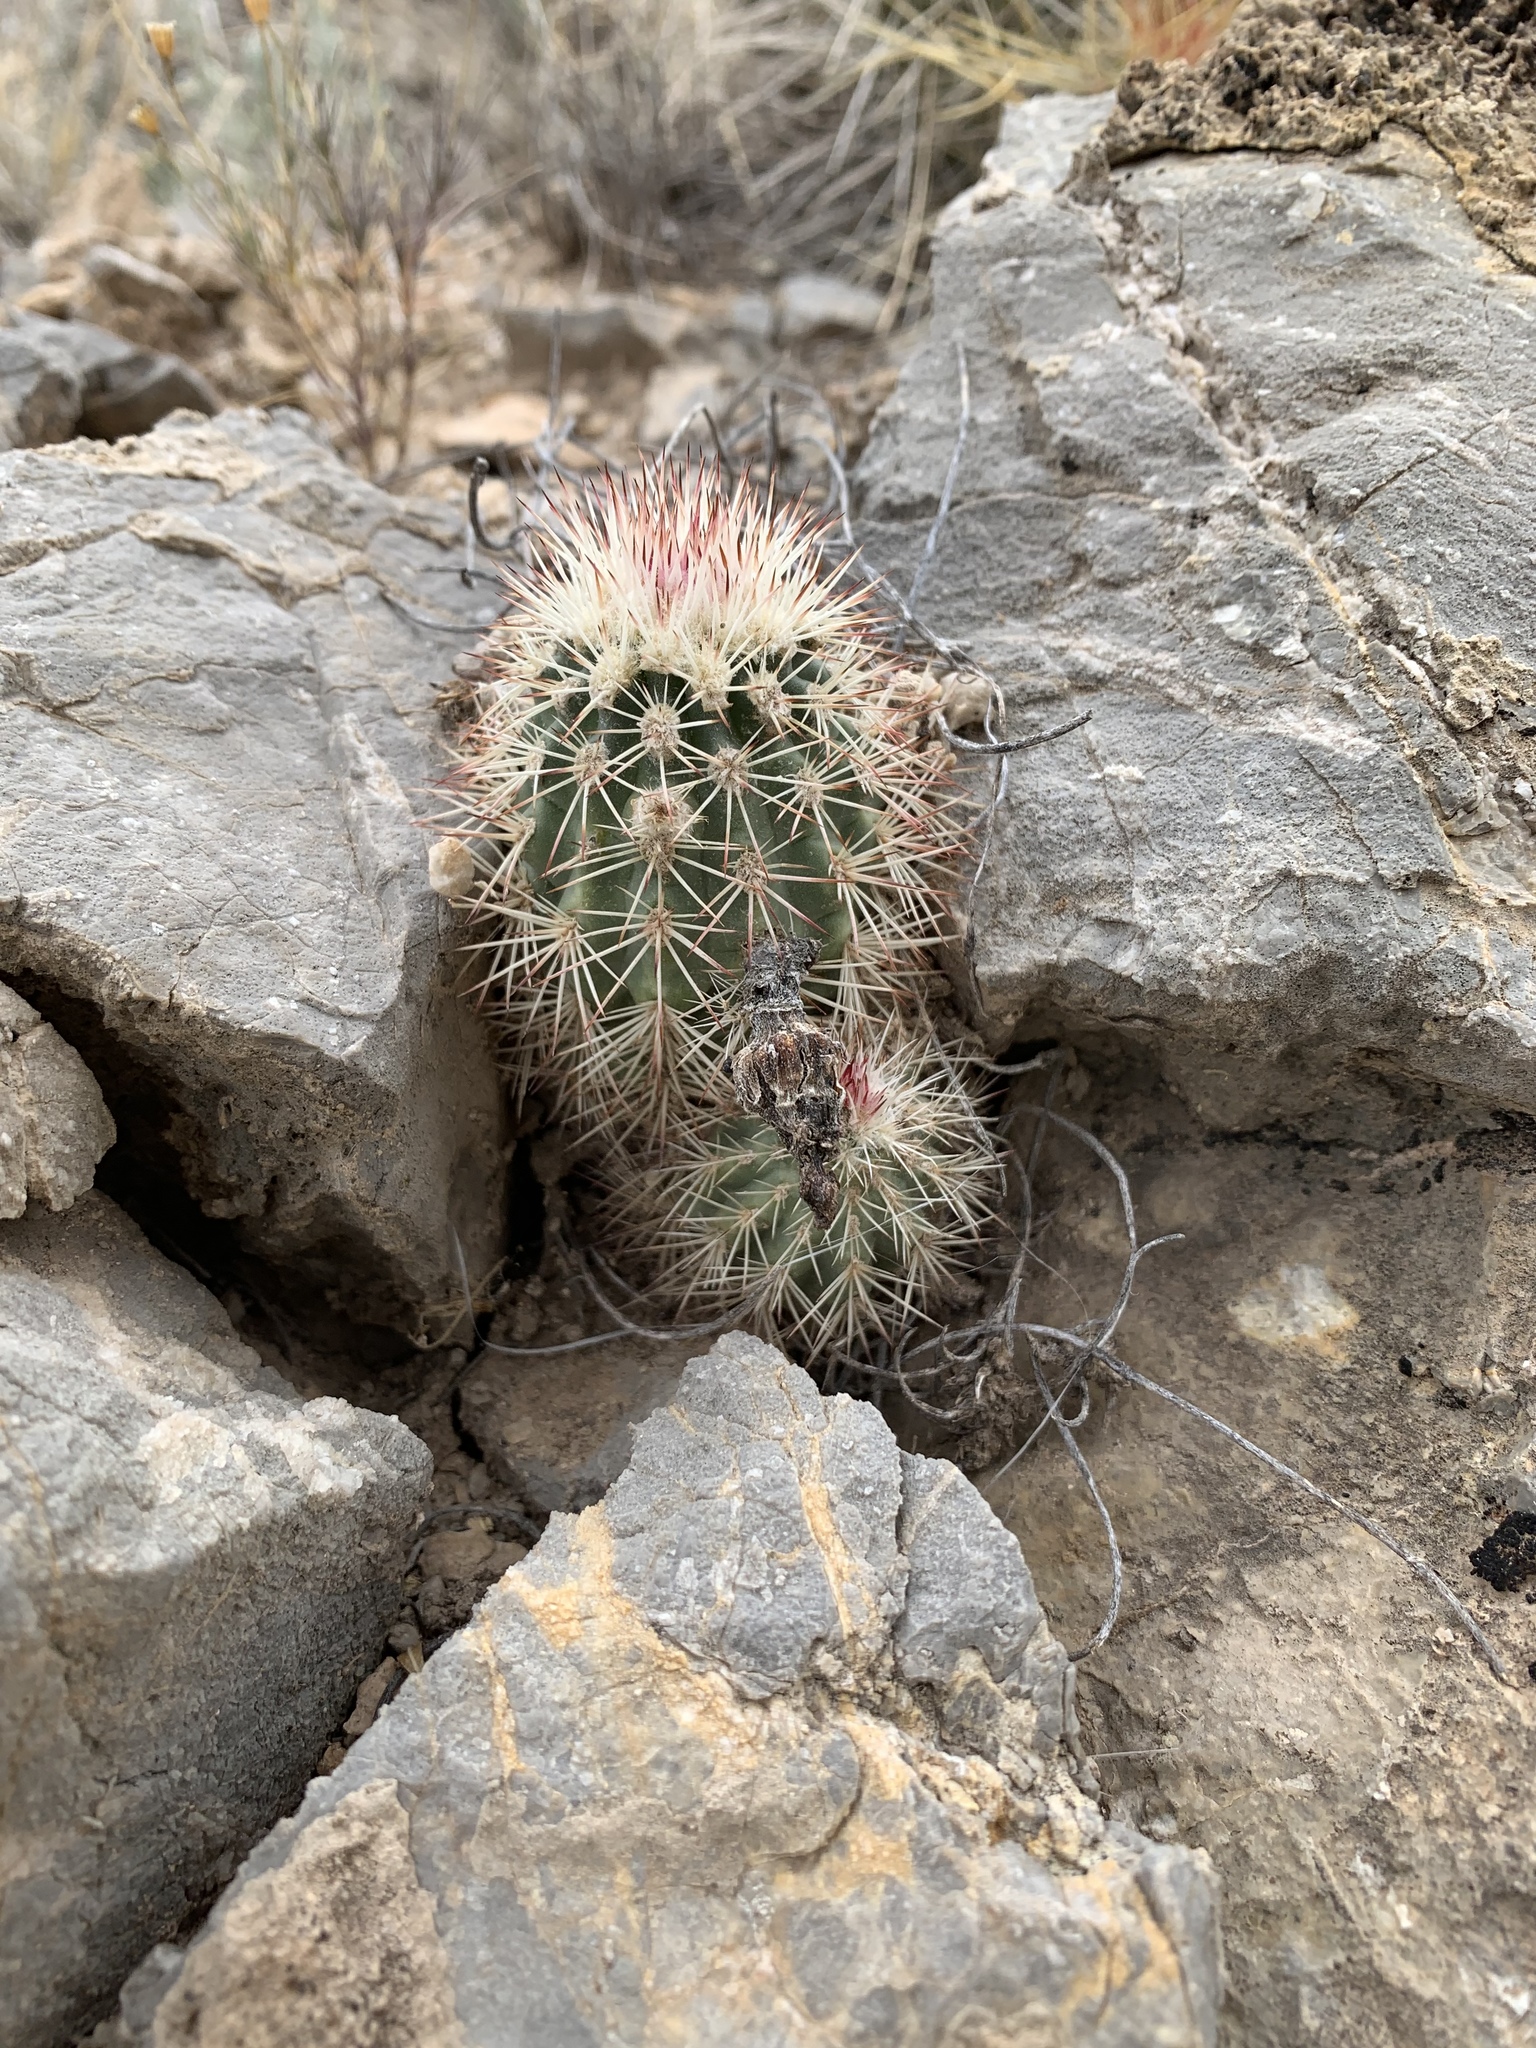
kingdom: Plantae
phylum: Tracheophyta
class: Magnoliopsida
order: Caryophyllales
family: Cactaceae
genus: Echinocereus
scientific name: Echinocereus roetteri
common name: Lloyd's hedgehog cactus
